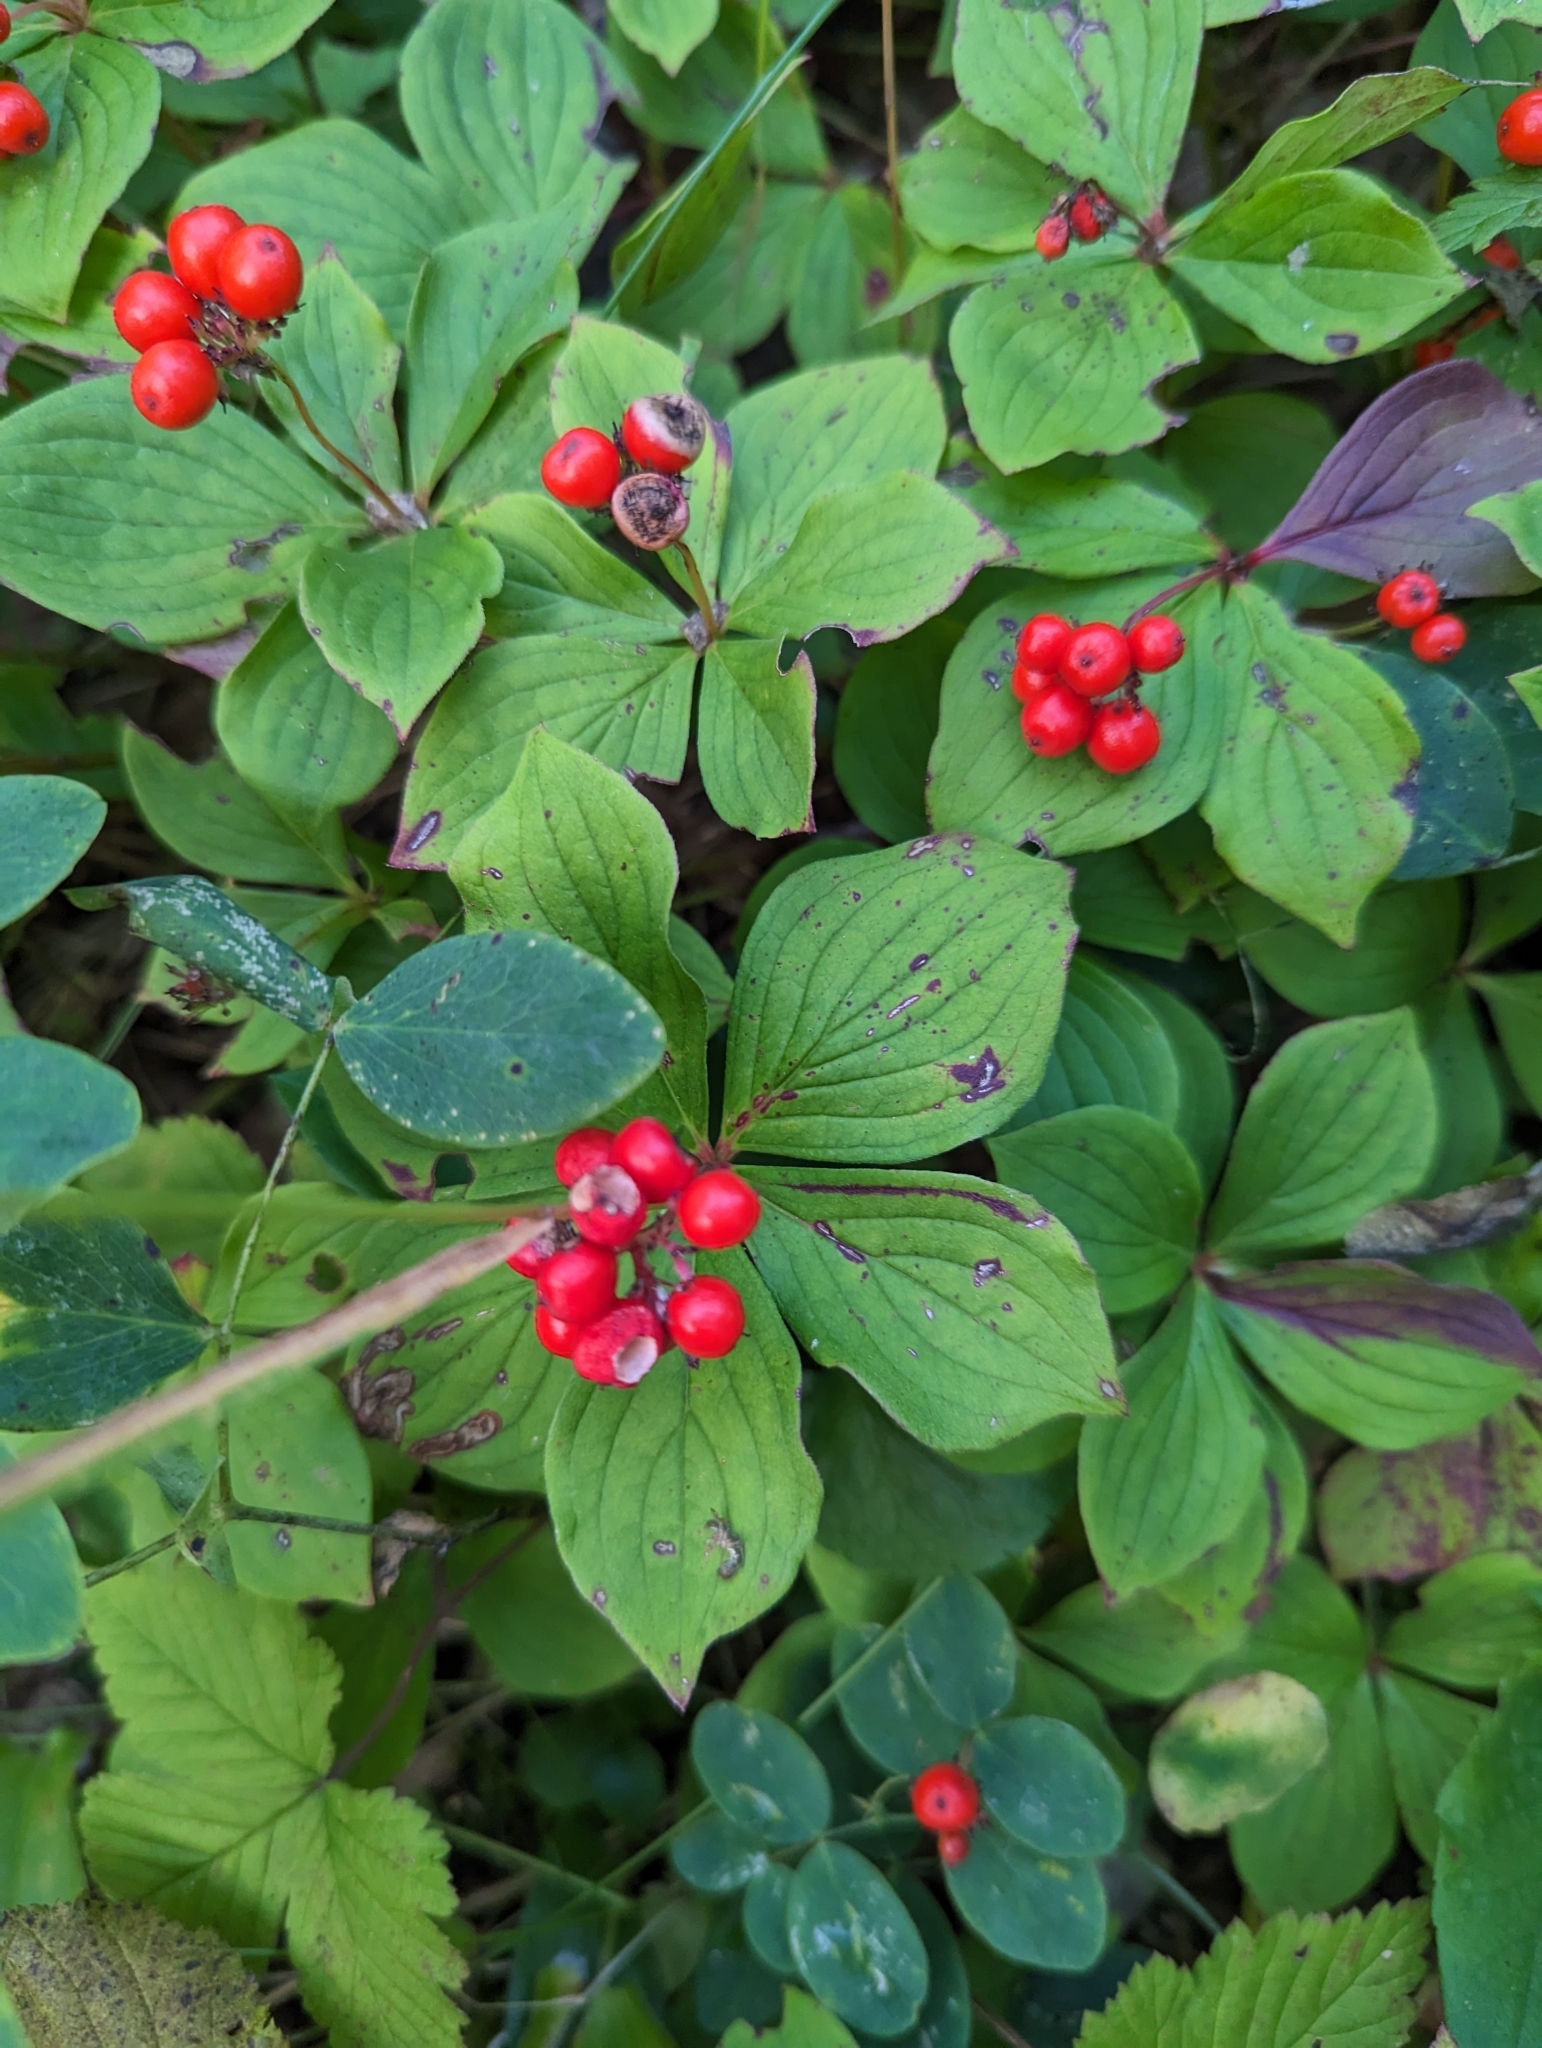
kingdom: Plantae
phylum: Tracheophyta
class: Magnoliopsida
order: Cornales
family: Cornaceae
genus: Cornus
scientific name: Cornus canadensis
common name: Creeping dogwood
